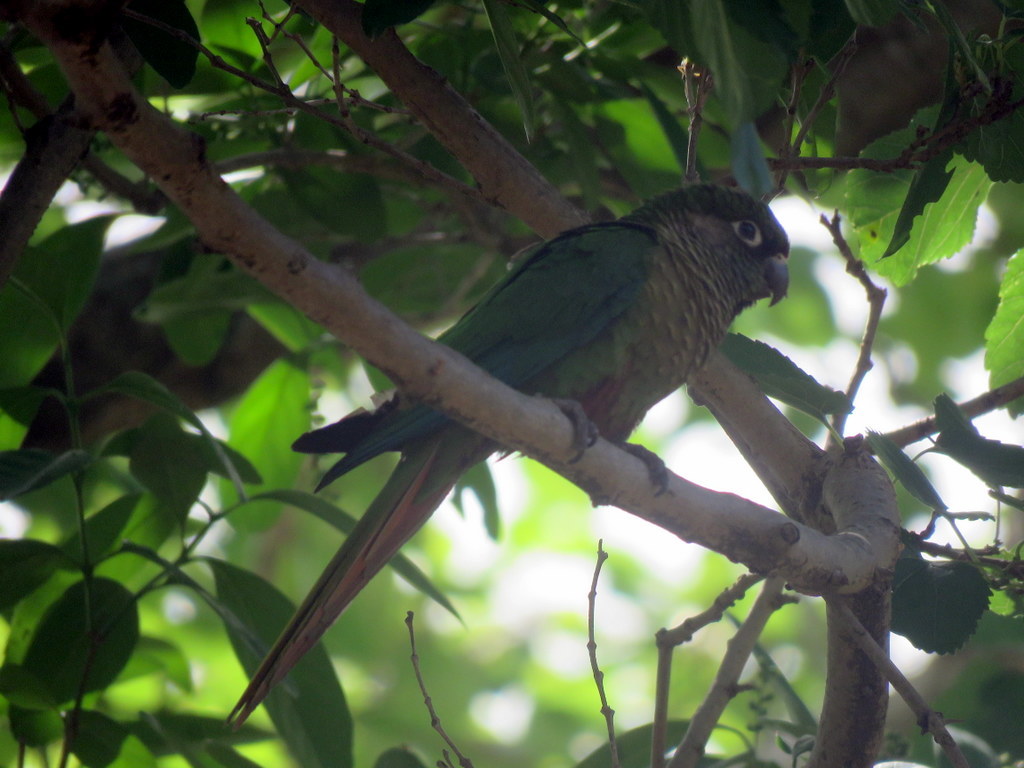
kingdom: Animalia
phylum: Chordata
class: Aves
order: Psittaciformes
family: Psittacidae
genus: Pyrrhura
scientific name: Pyrrhura frontalis
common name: Maroon-bellied parakeet
